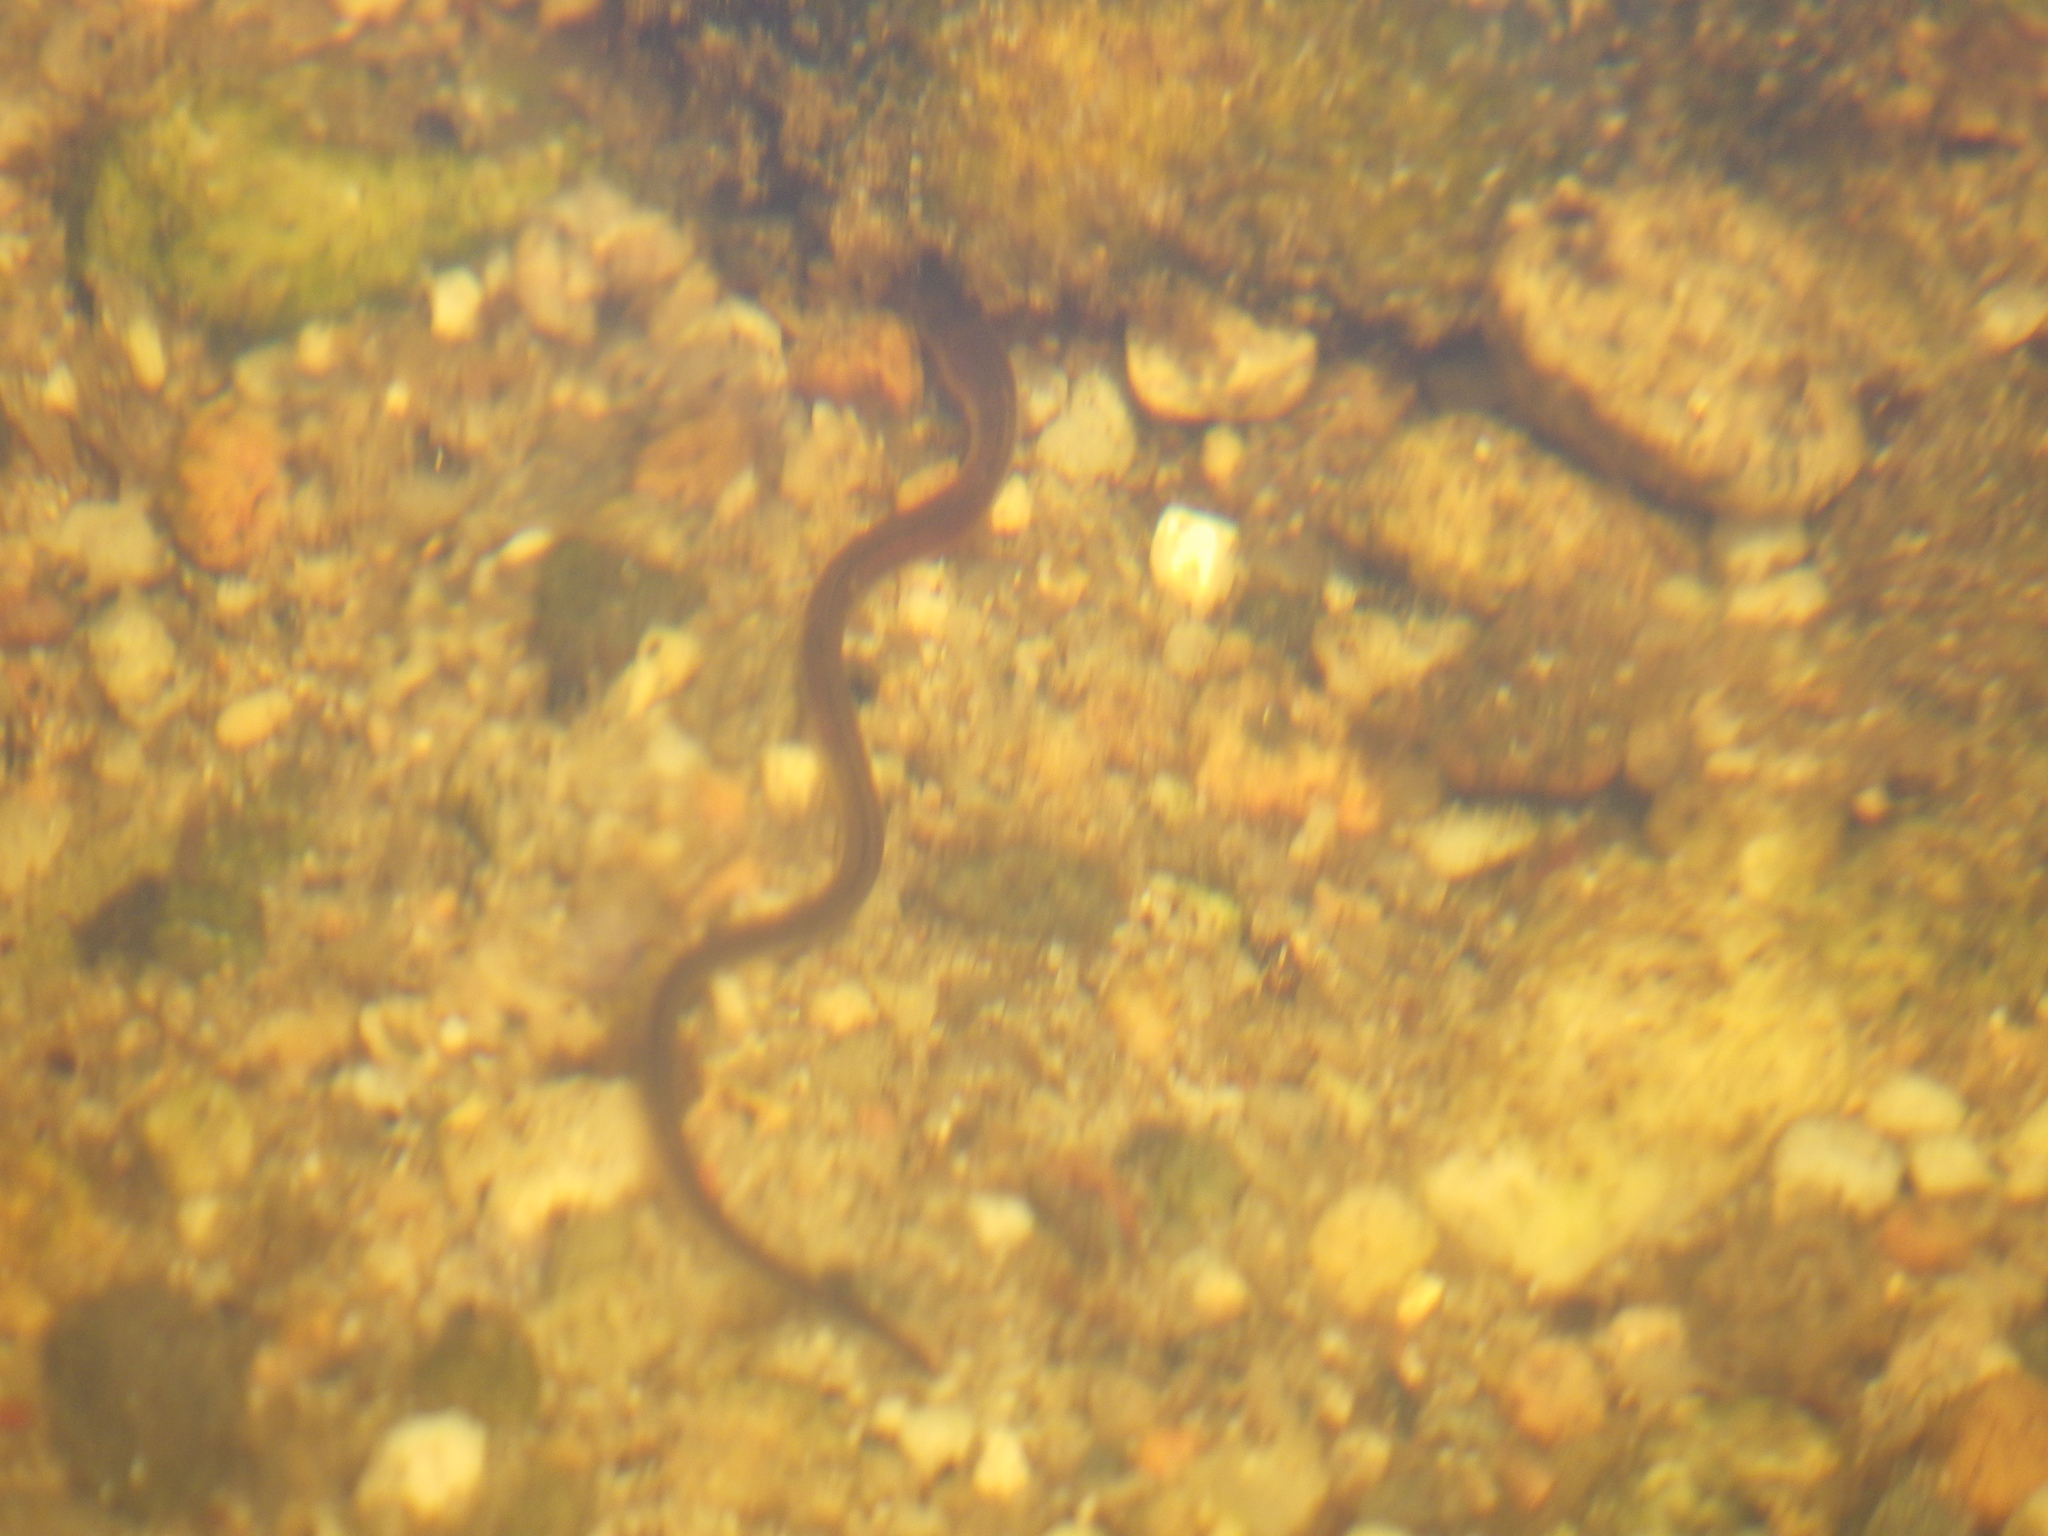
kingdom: Animalia
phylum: Chordata
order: Anguilliformes
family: Anguillidae
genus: Anguilla
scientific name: Anguilla rostrata
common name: American eel
